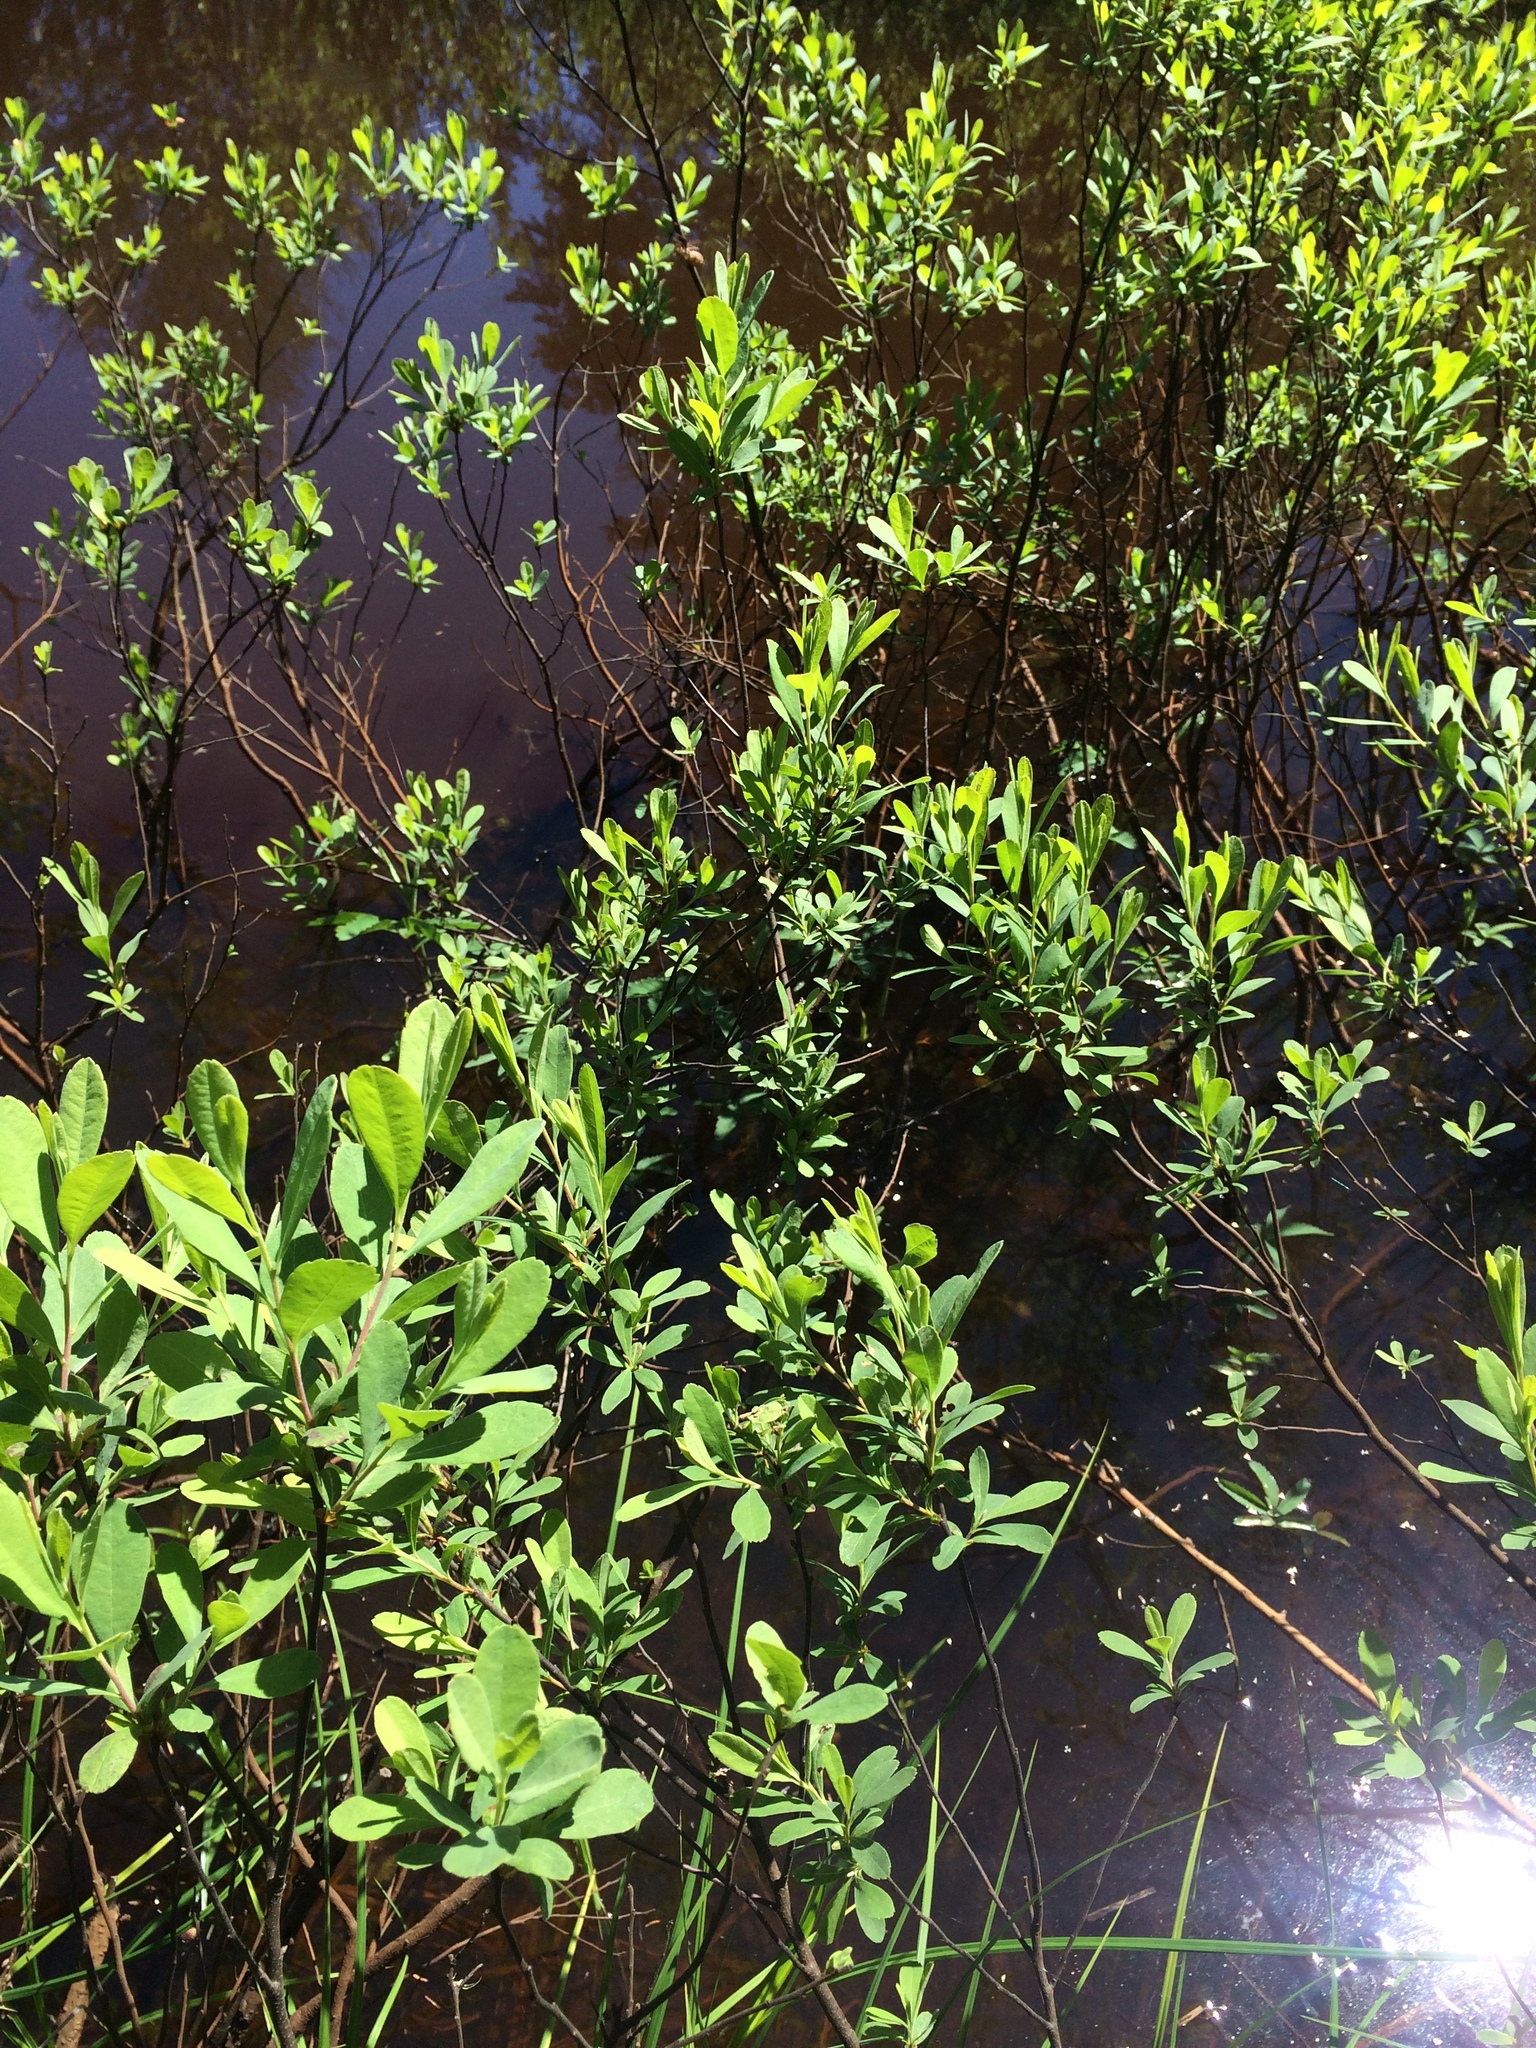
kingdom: Plantae
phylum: Tracheophyta
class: Magnoliopsida
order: Fagales
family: Myricaceae
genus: Myrica
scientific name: Myrica gale
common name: Sweet gale
